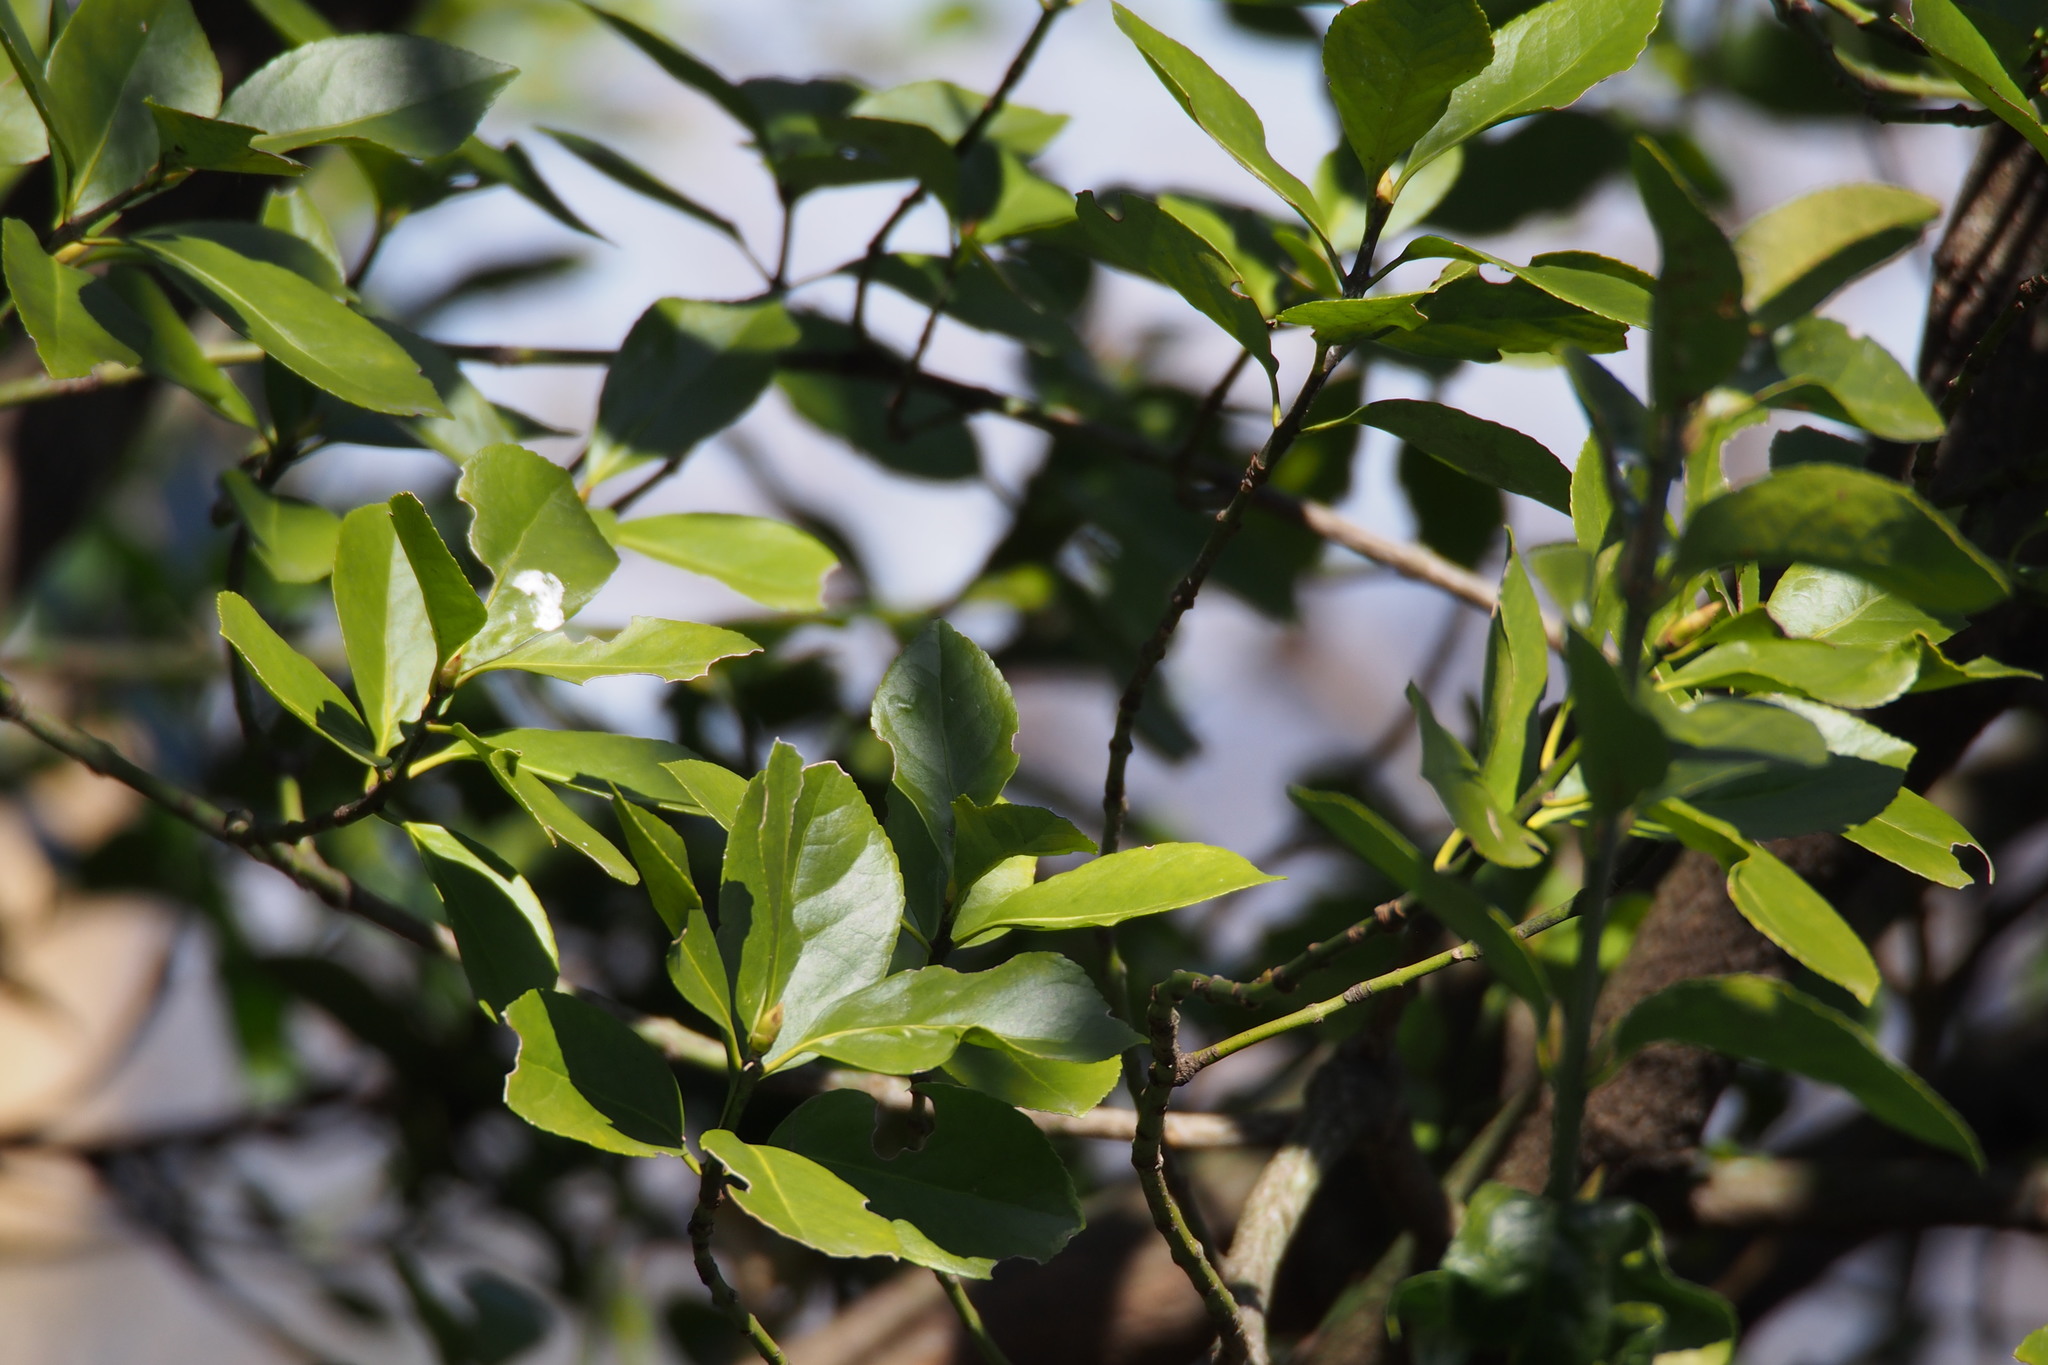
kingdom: Plantae
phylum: Tracheophyta
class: Magnoliopsida
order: Celastrales
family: Celastraceae
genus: Euonymus
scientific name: Euonymus japonicus
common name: Japanese spindletree
